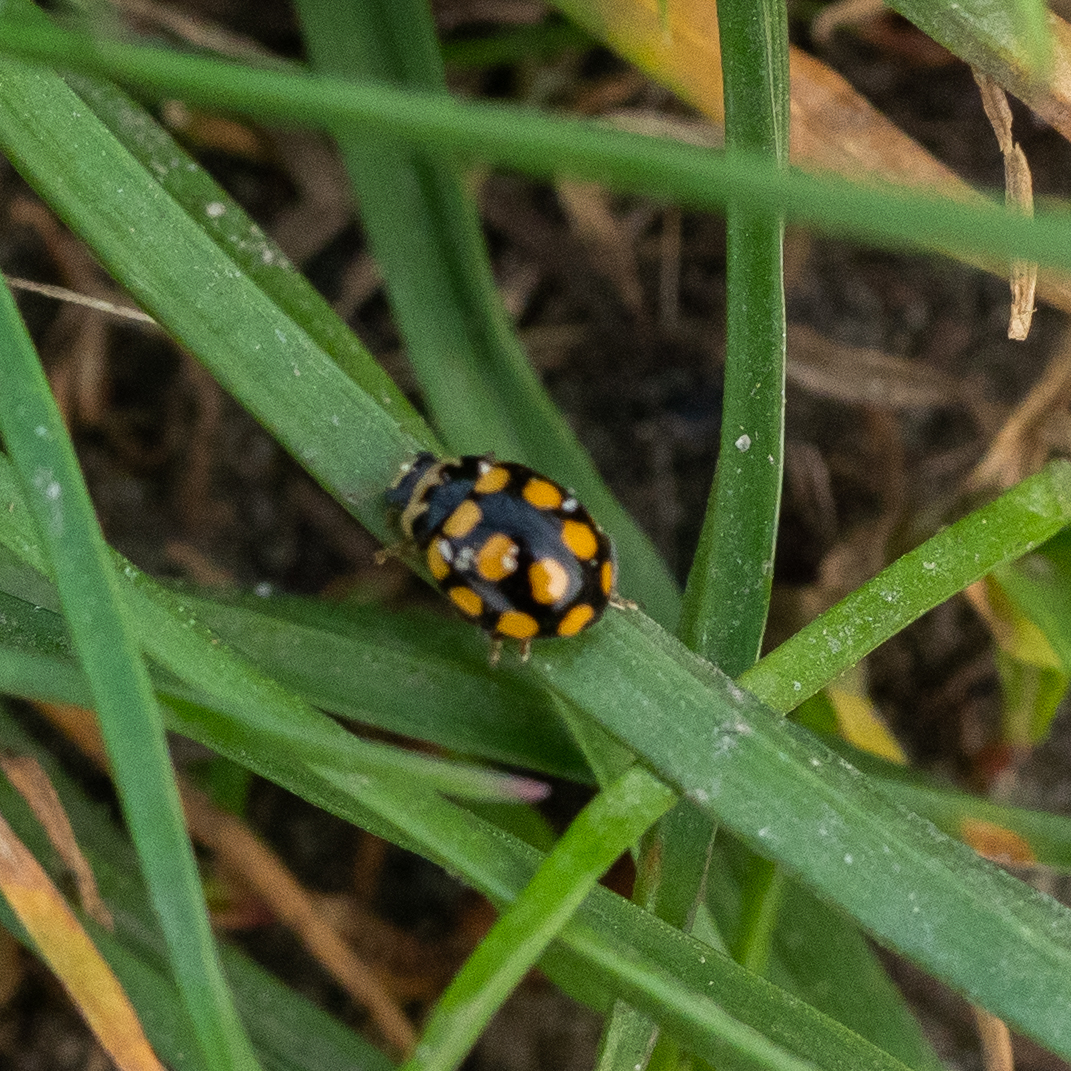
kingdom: Animalia
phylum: Arthropoda
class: Insecta
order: Coleoptera
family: Coccinellidae
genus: Coccinula
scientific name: Coccinula quatuordecimpustulata
